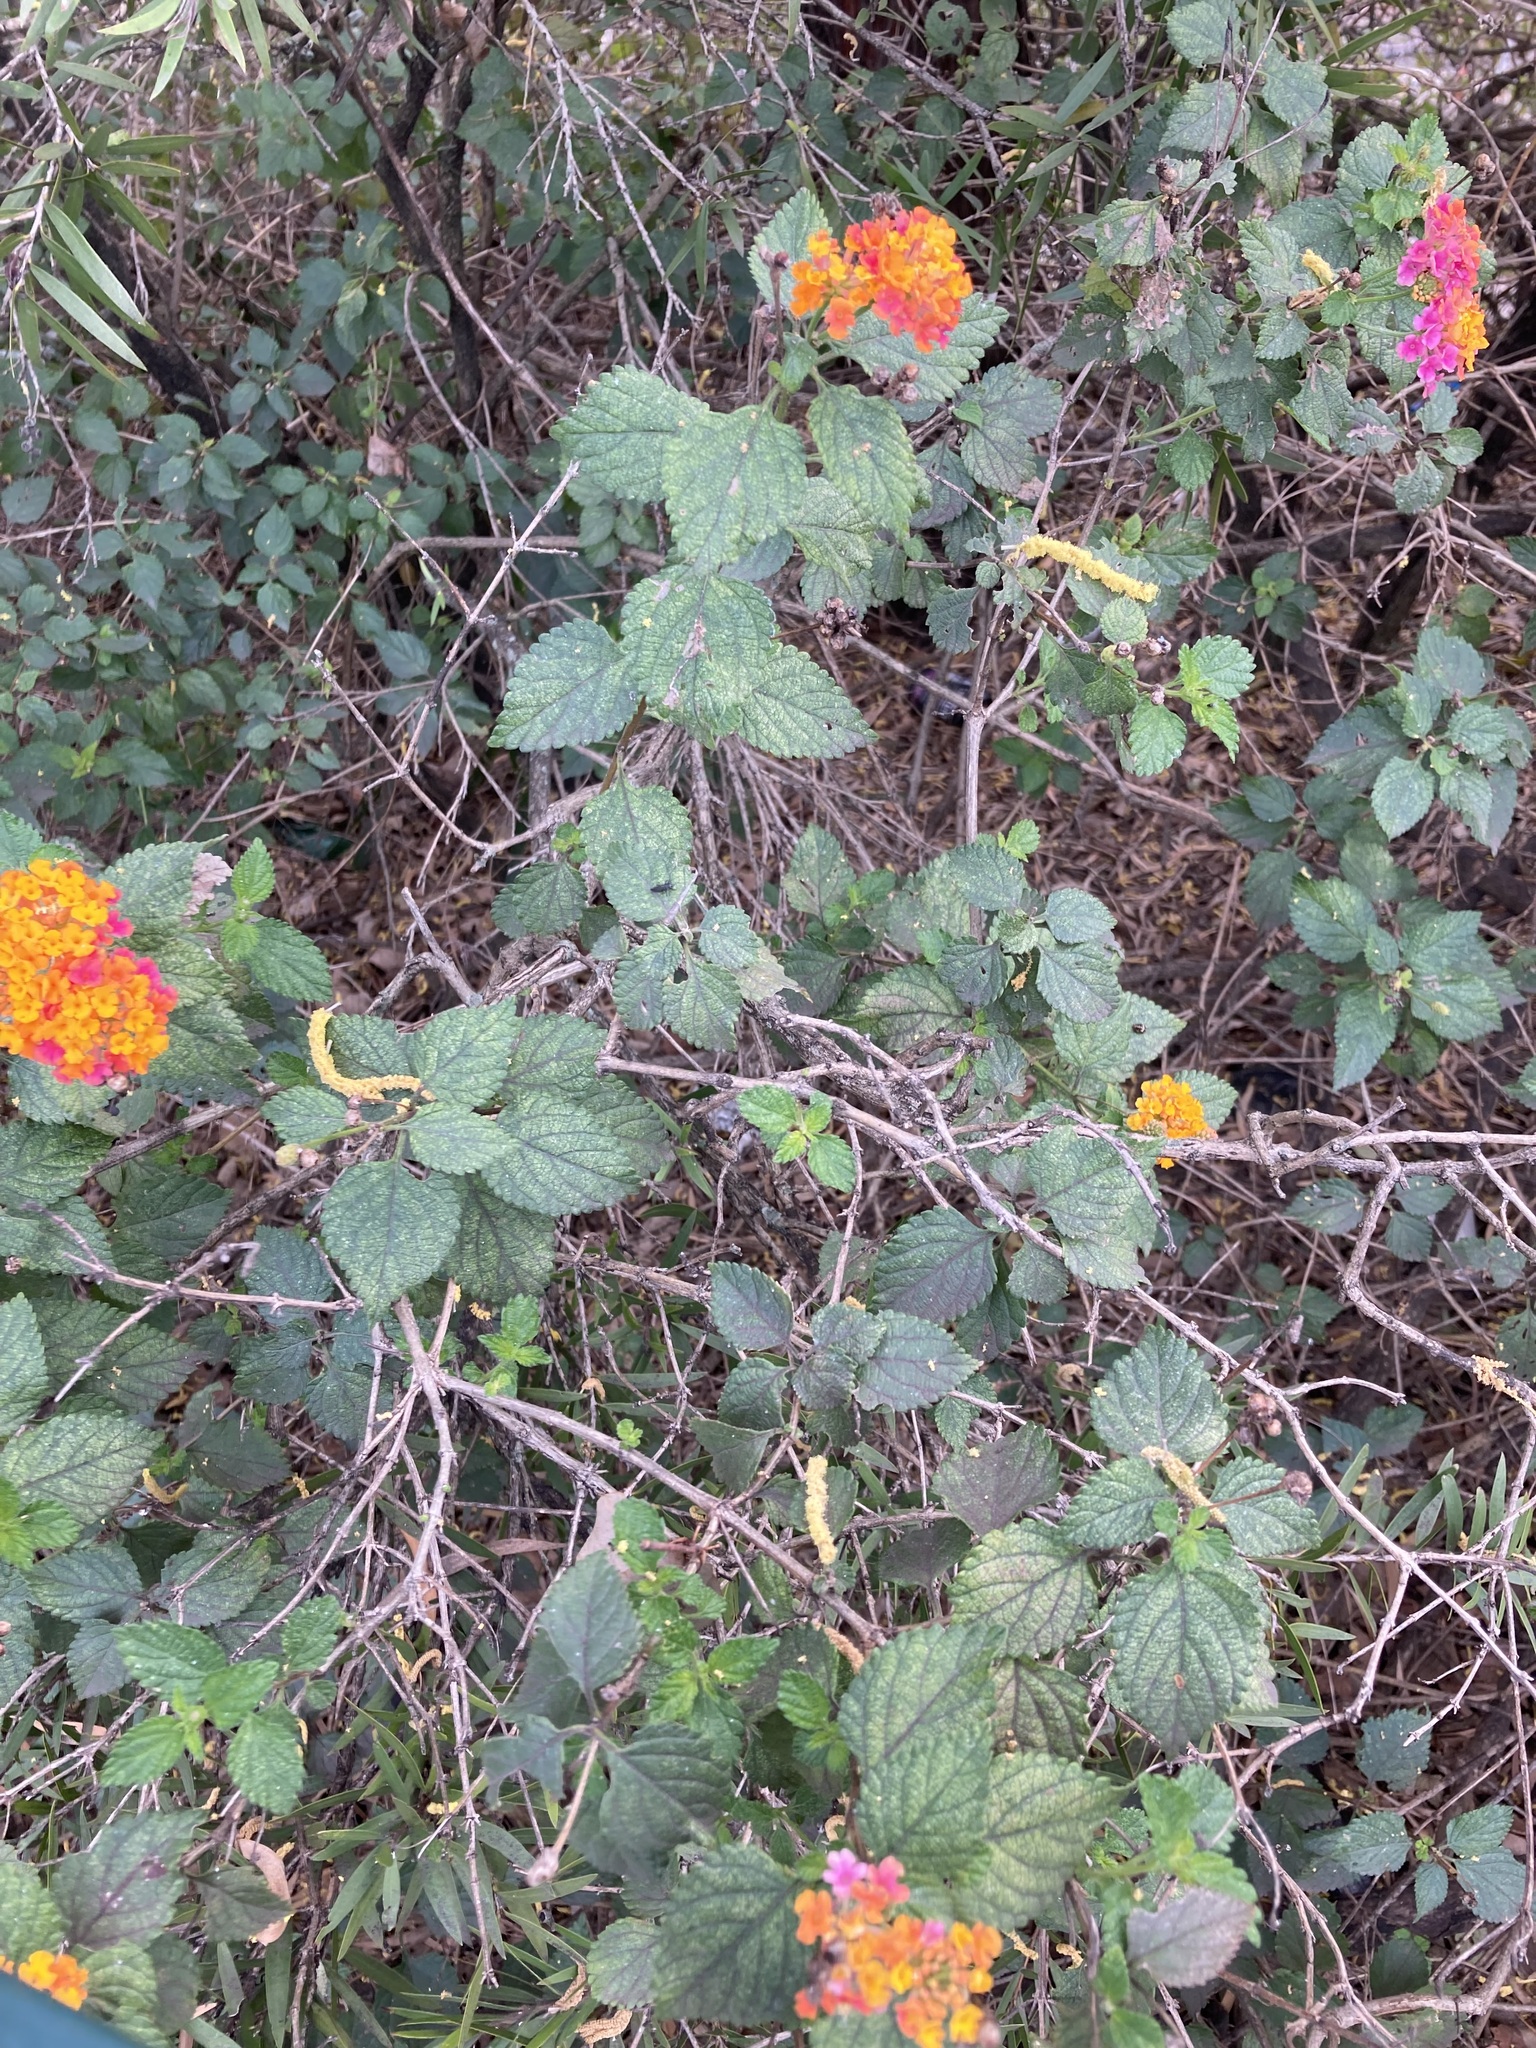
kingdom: Plantae
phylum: Tracheophyta
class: Magnoliopsida
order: Lamiales
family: Verbenaceae
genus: Lantana
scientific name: Lantana camara
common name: Lantana
